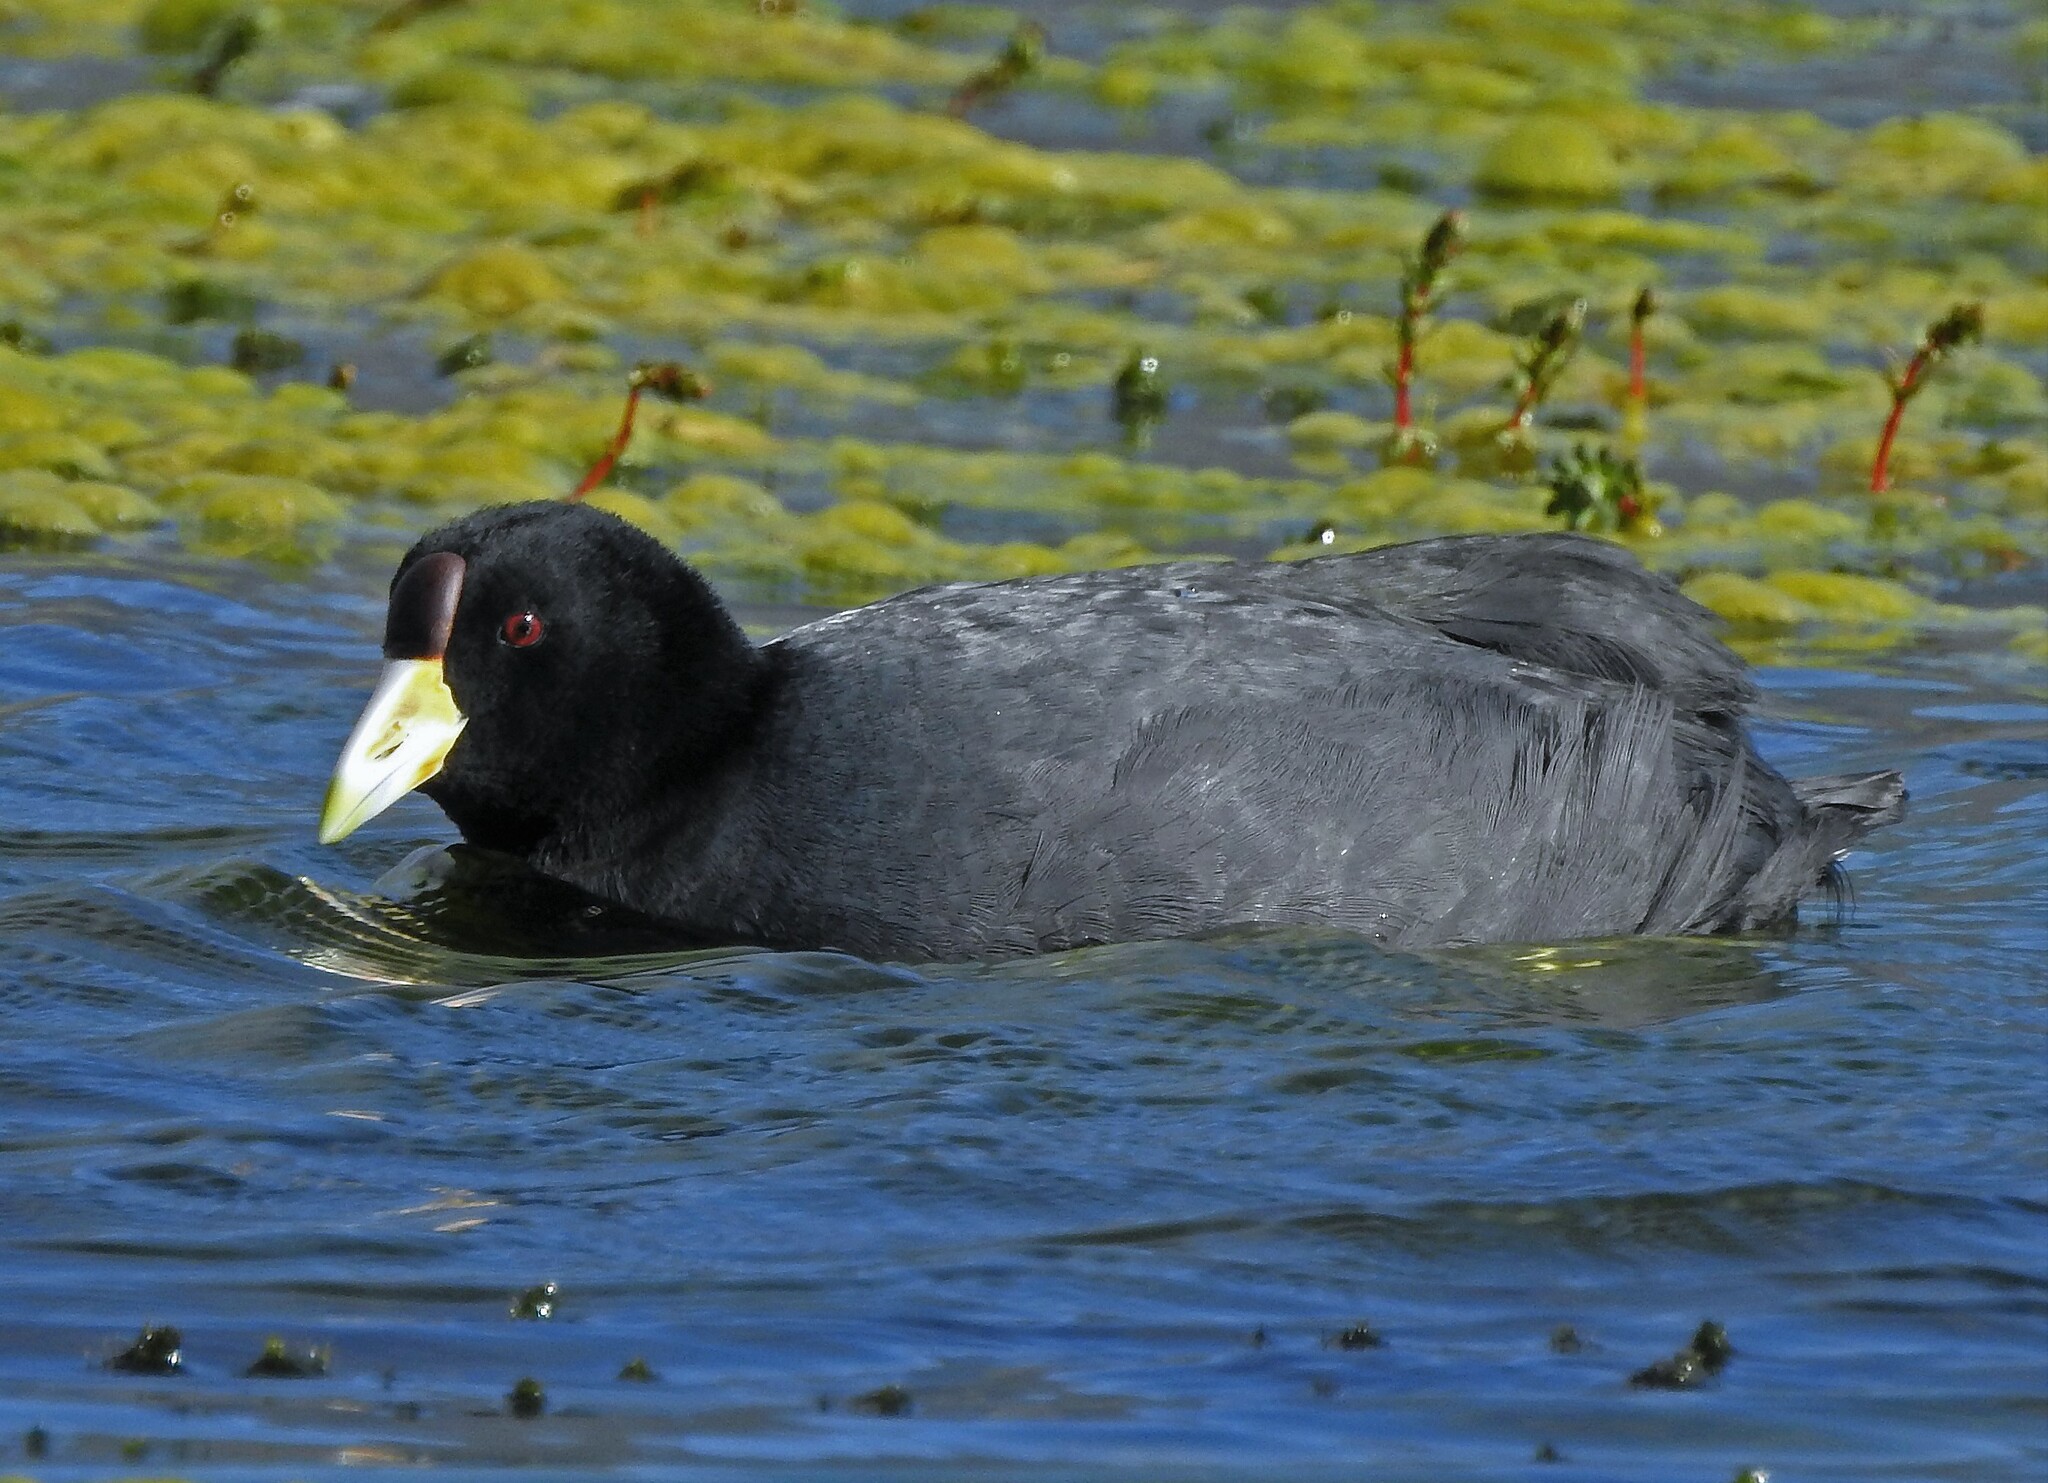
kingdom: Animalia
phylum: Chordata
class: Aves
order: Gruiformes
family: Rallidae
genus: Fulica
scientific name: Fulica ardesiaca
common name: Andean coot
